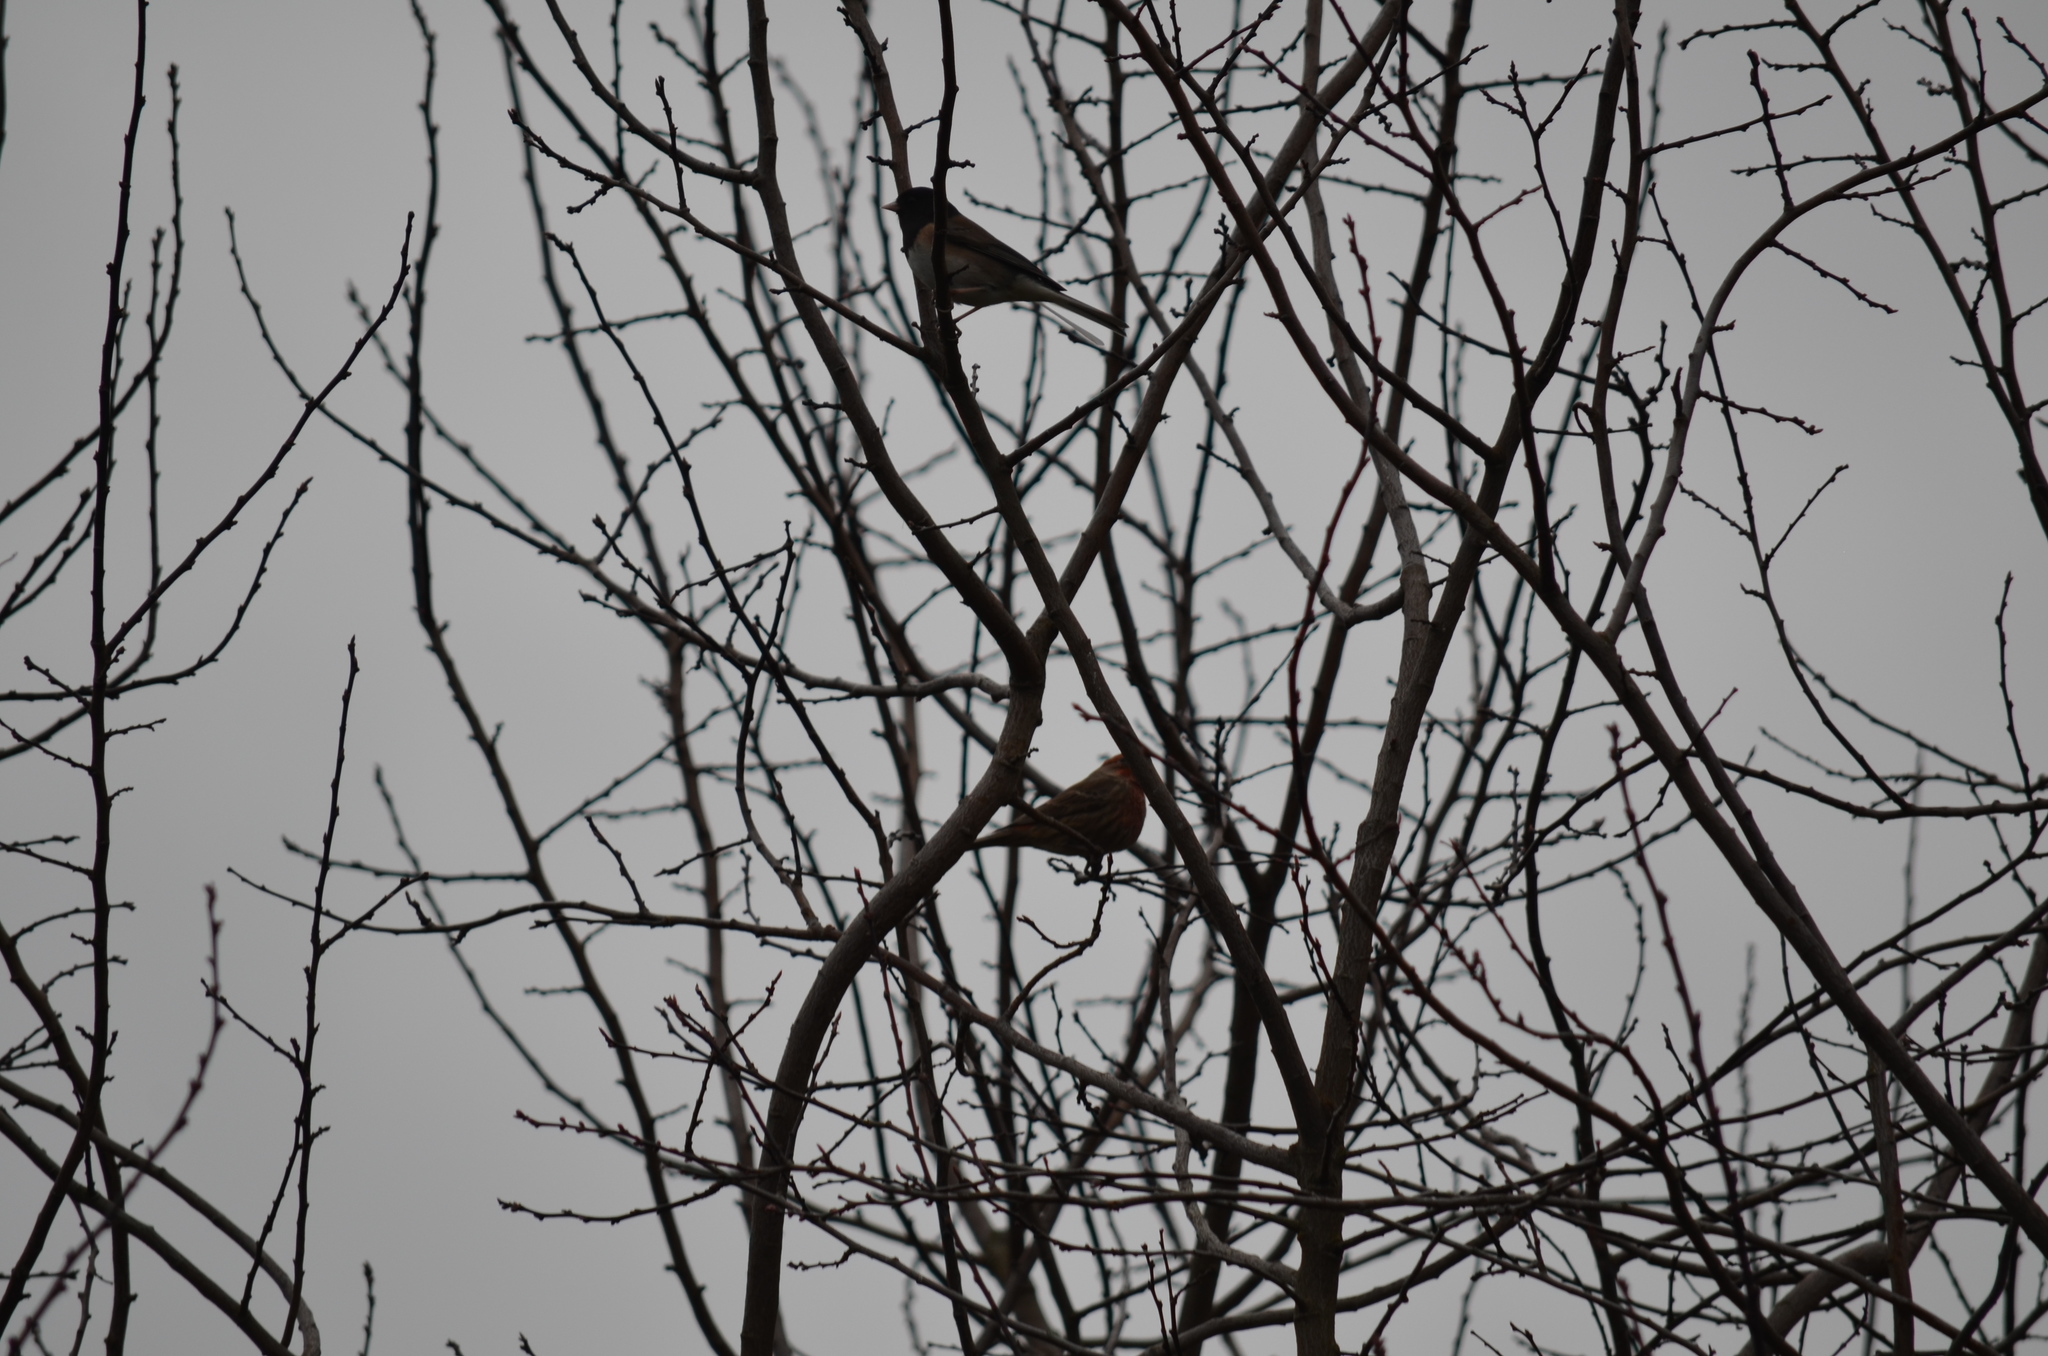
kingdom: Animalia
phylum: Chordata
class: Aves
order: Passeriformes
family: Fringillidae
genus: Haemorhous
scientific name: Haemorhous mexicanus
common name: House finch
